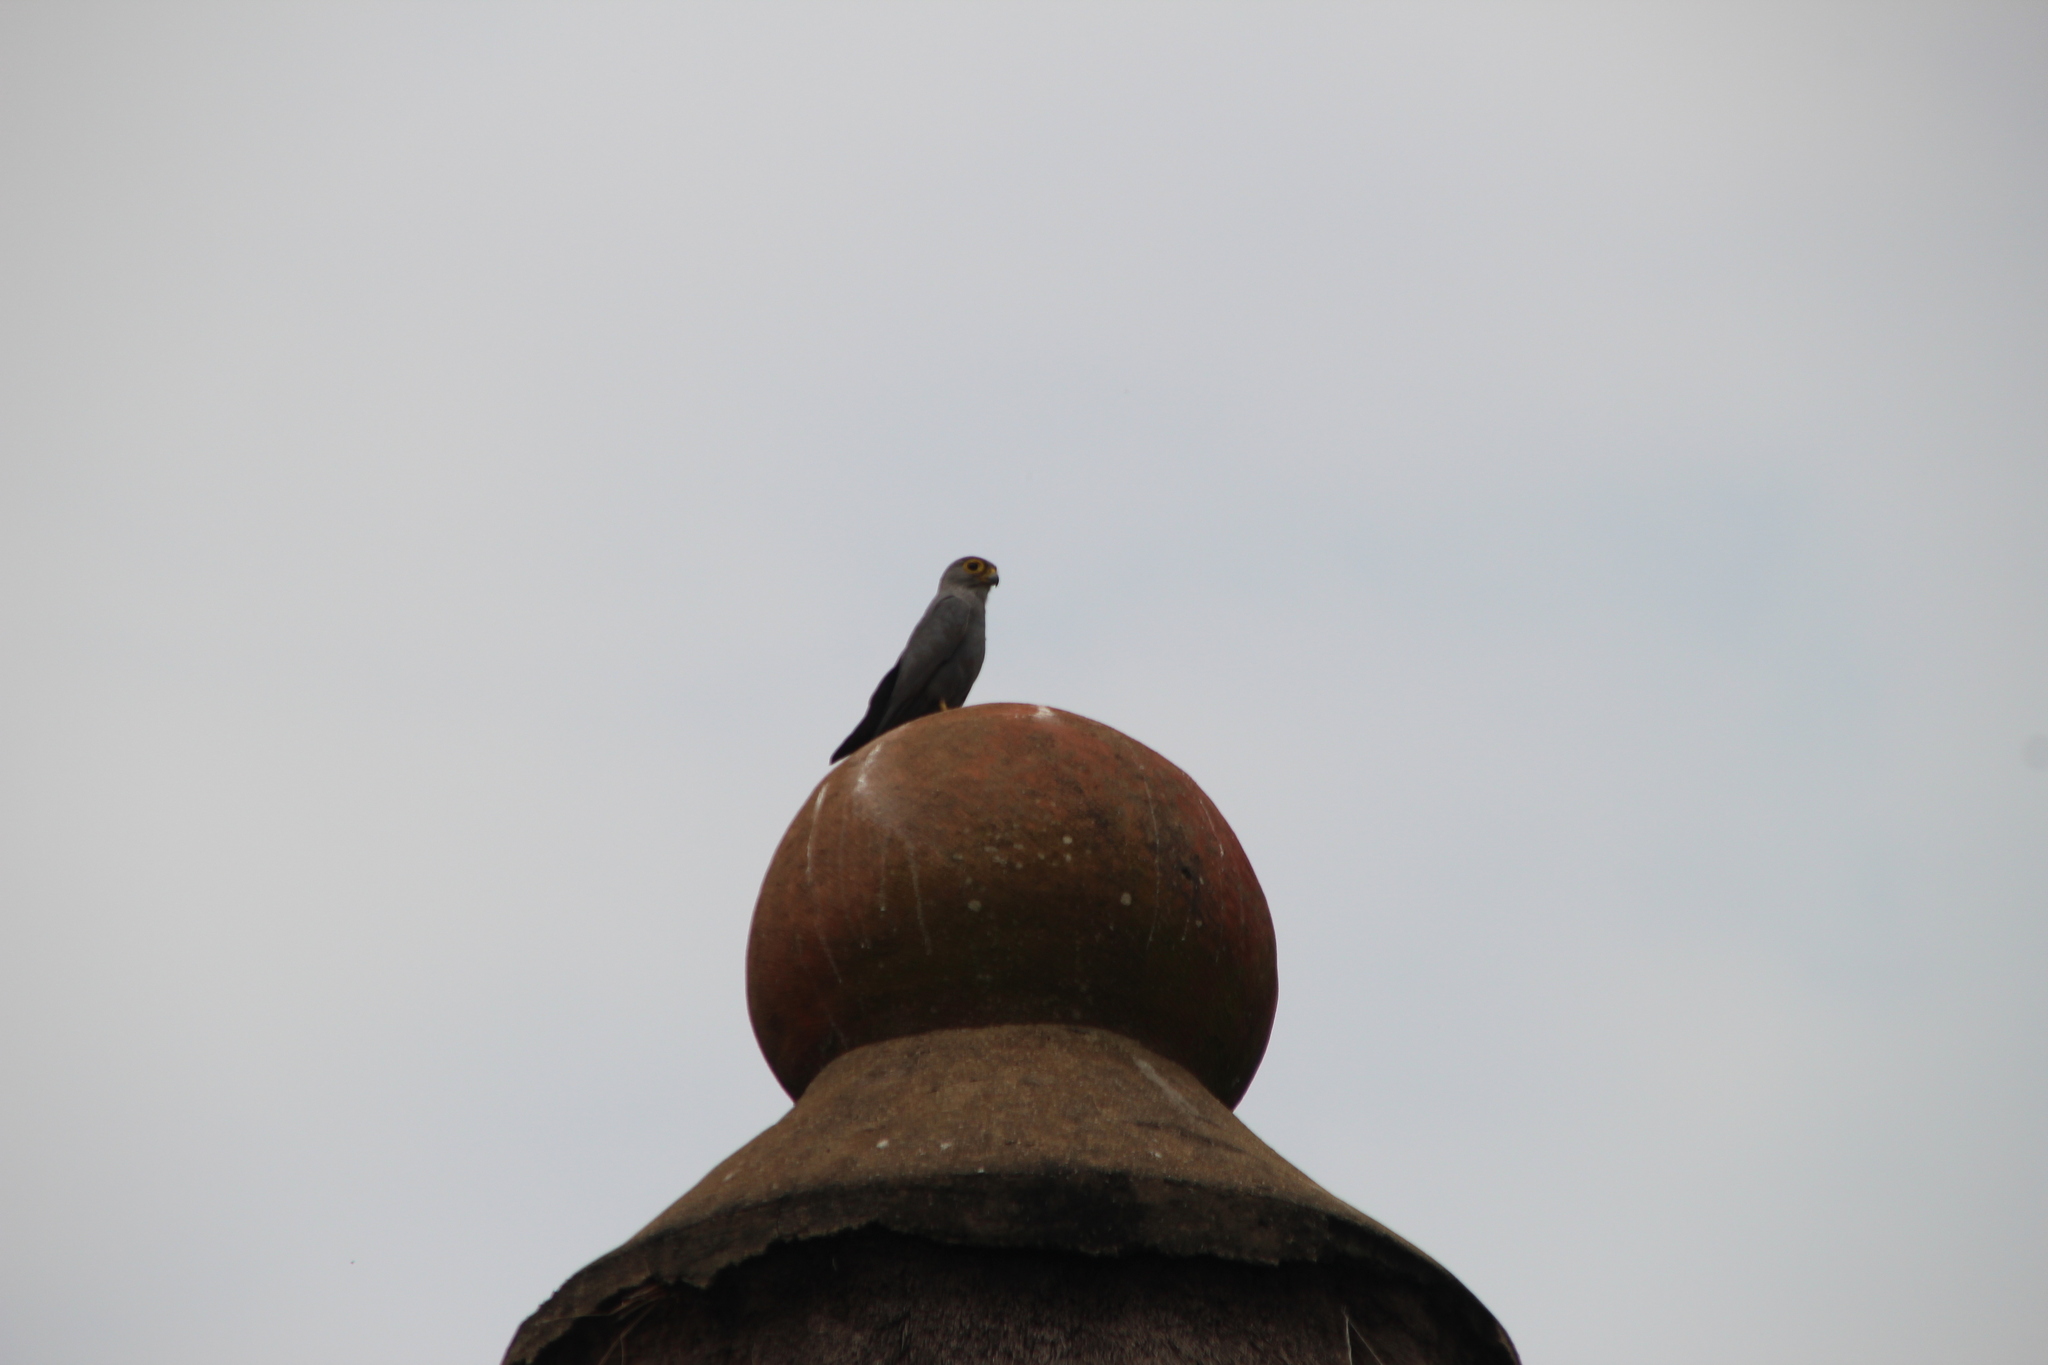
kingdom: Animalia
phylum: Chordata
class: Aves
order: Falconiformes
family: Falconidae
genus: Falco
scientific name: Falco ardosiaceus
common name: Grey kestrel
